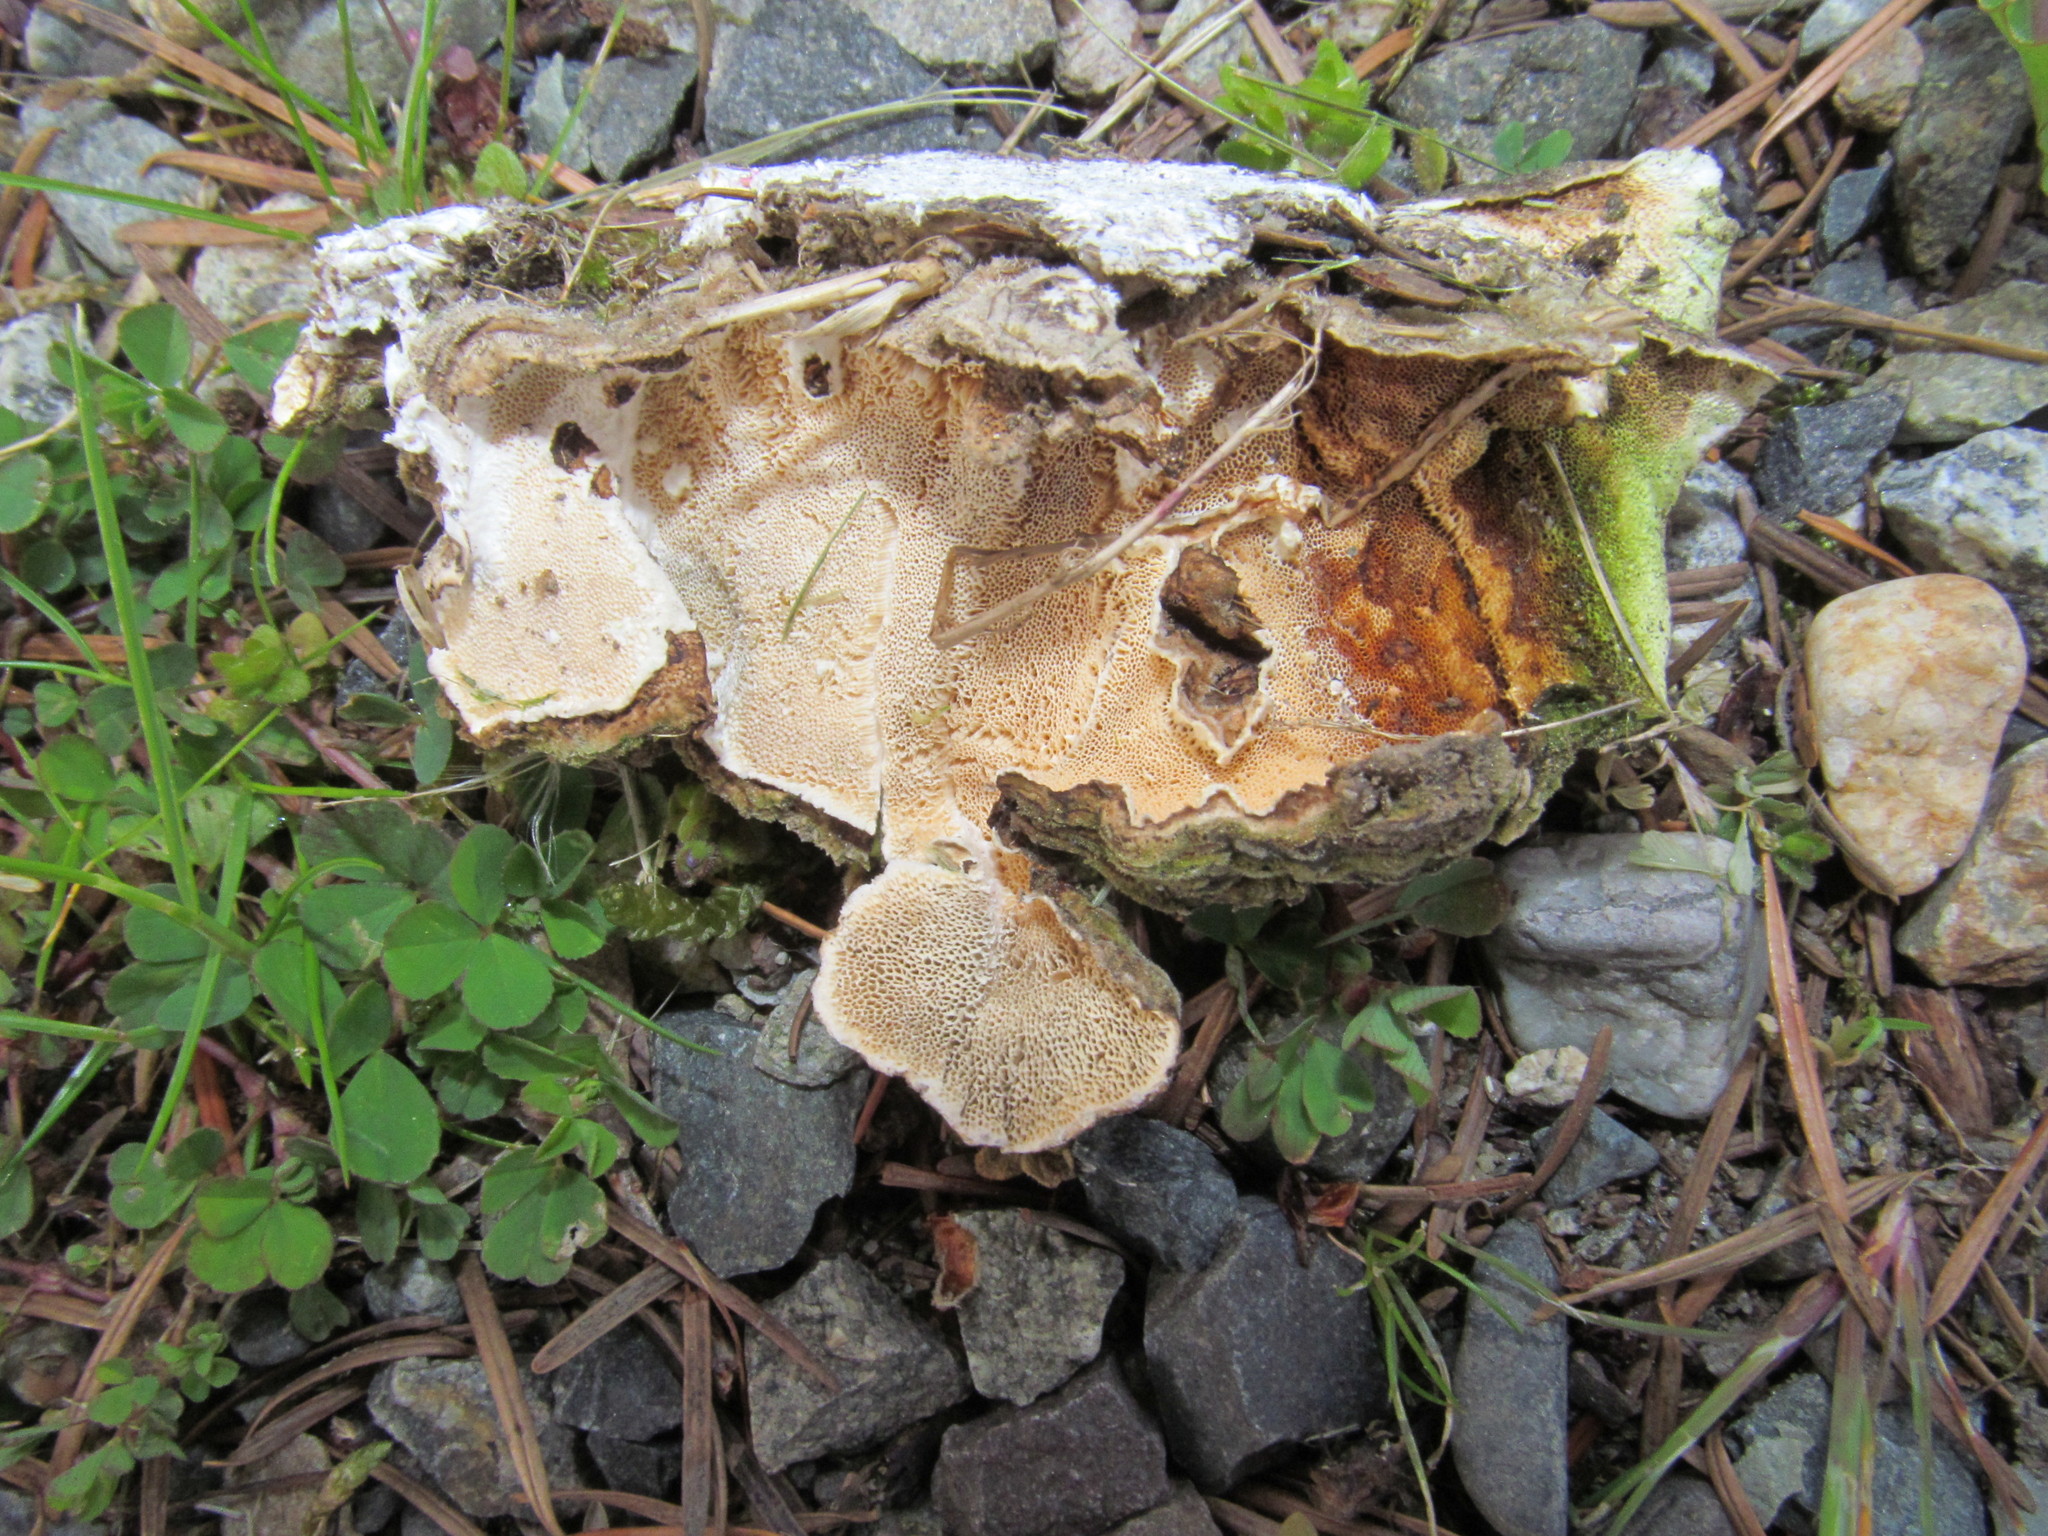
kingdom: Fungi
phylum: Basidiomycota
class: Agaricomycetes
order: Polyporales
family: Polyporaceae
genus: Trametes
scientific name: Trametes versicolor
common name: Turkeytail
